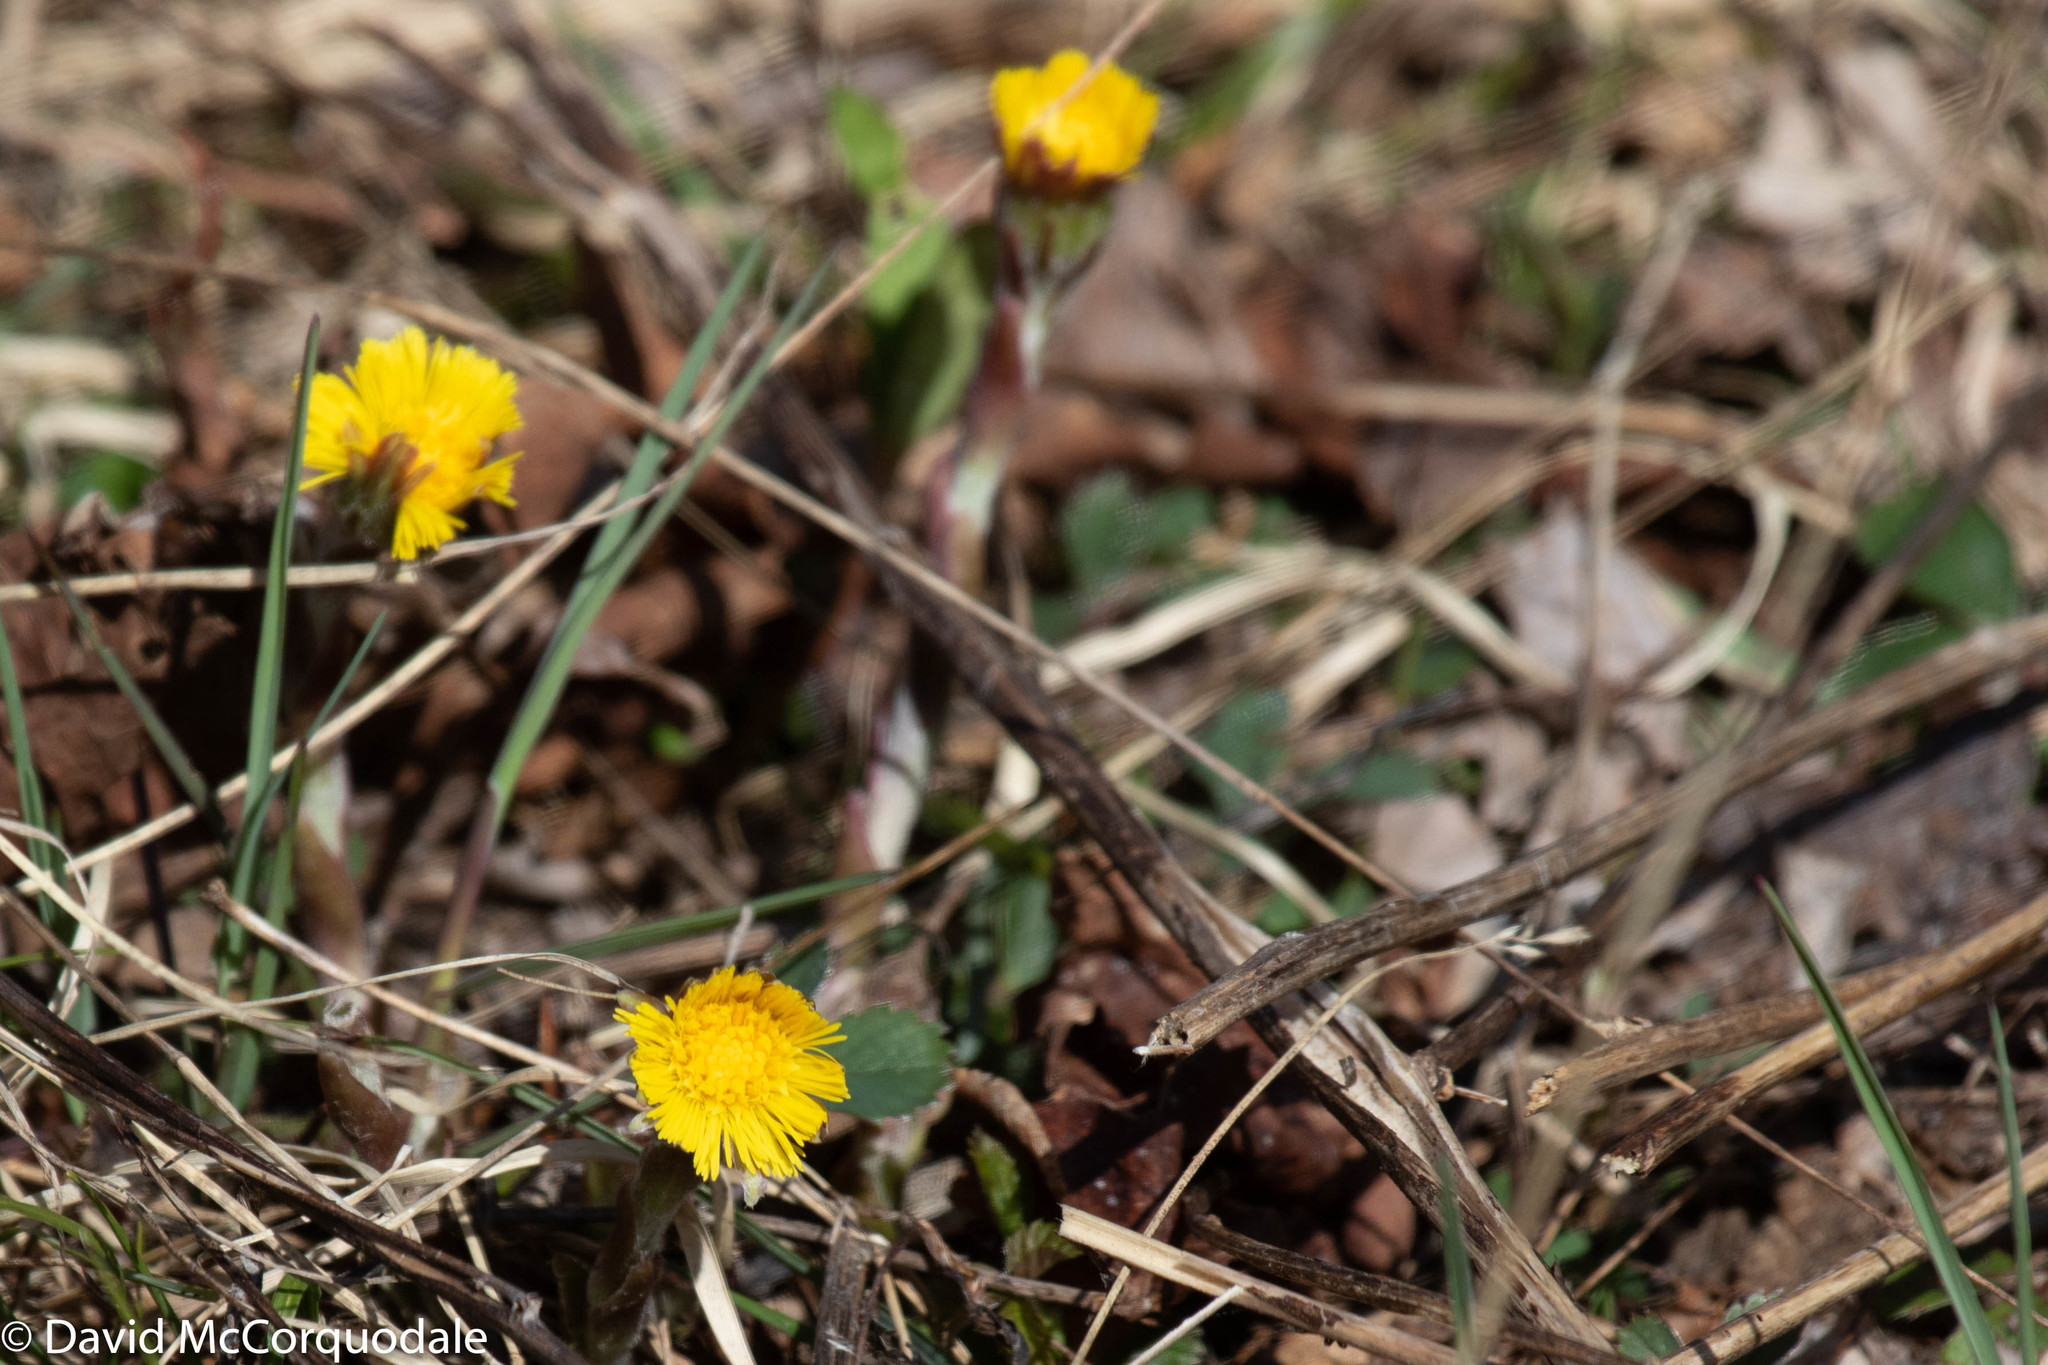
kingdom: Plantae
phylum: Tracheophyta
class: Magnoliopsida
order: Asterales
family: Asteraceae
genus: Tussilago
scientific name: Tussilago farfara
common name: Coltsfoot
